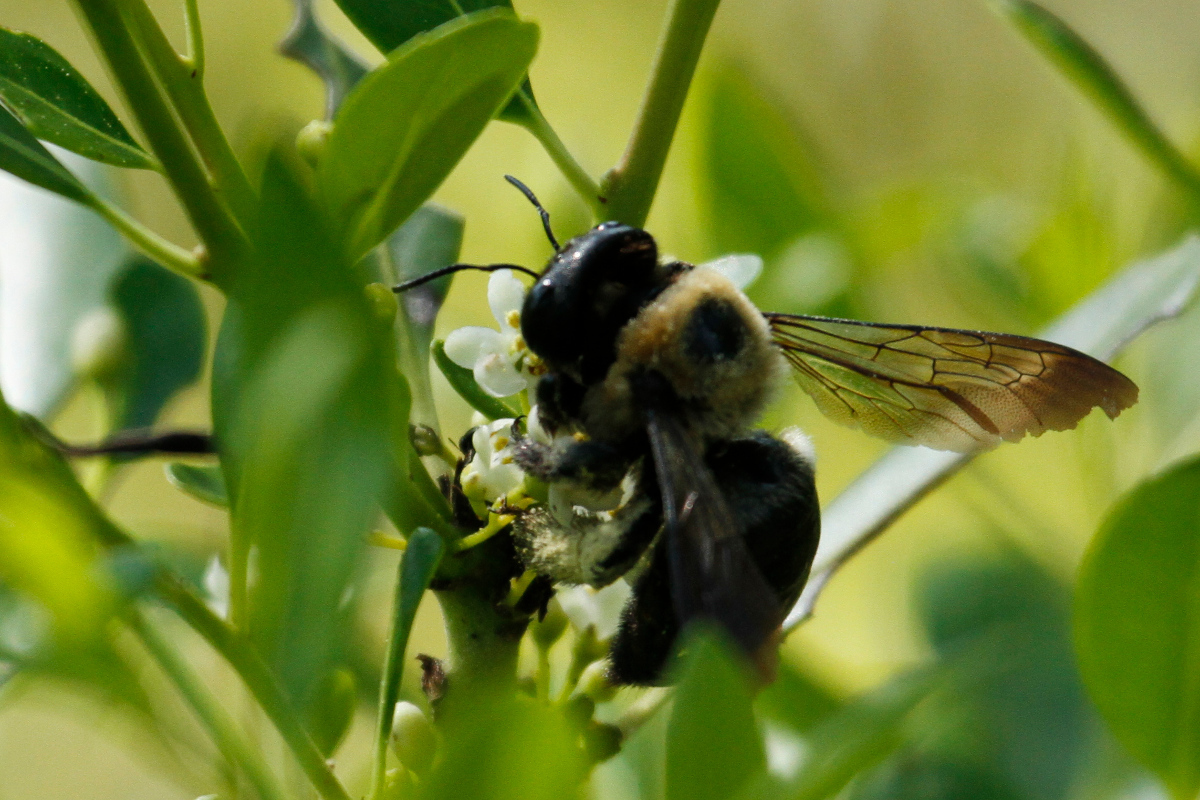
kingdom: Animalia
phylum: Arthropoda
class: Insecta
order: Hymenoptera
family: Apidae
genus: Xylocopa
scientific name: Xylocopa virginica
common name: Carpenter bee
